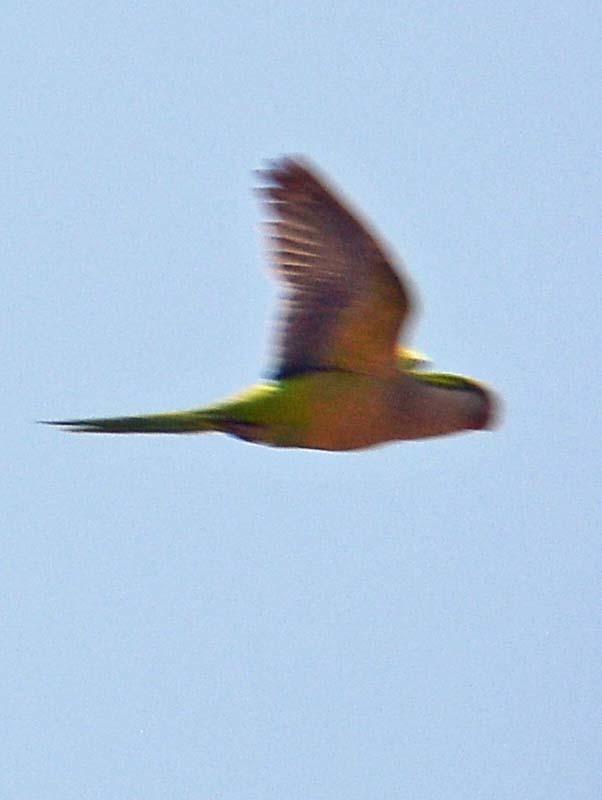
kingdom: Animalia
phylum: Chordata
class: Aves
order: Psittaciformes
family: Psittacidae
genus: Myiopsitta
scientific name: Myiopsitta monachus
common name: Monk parakeet
